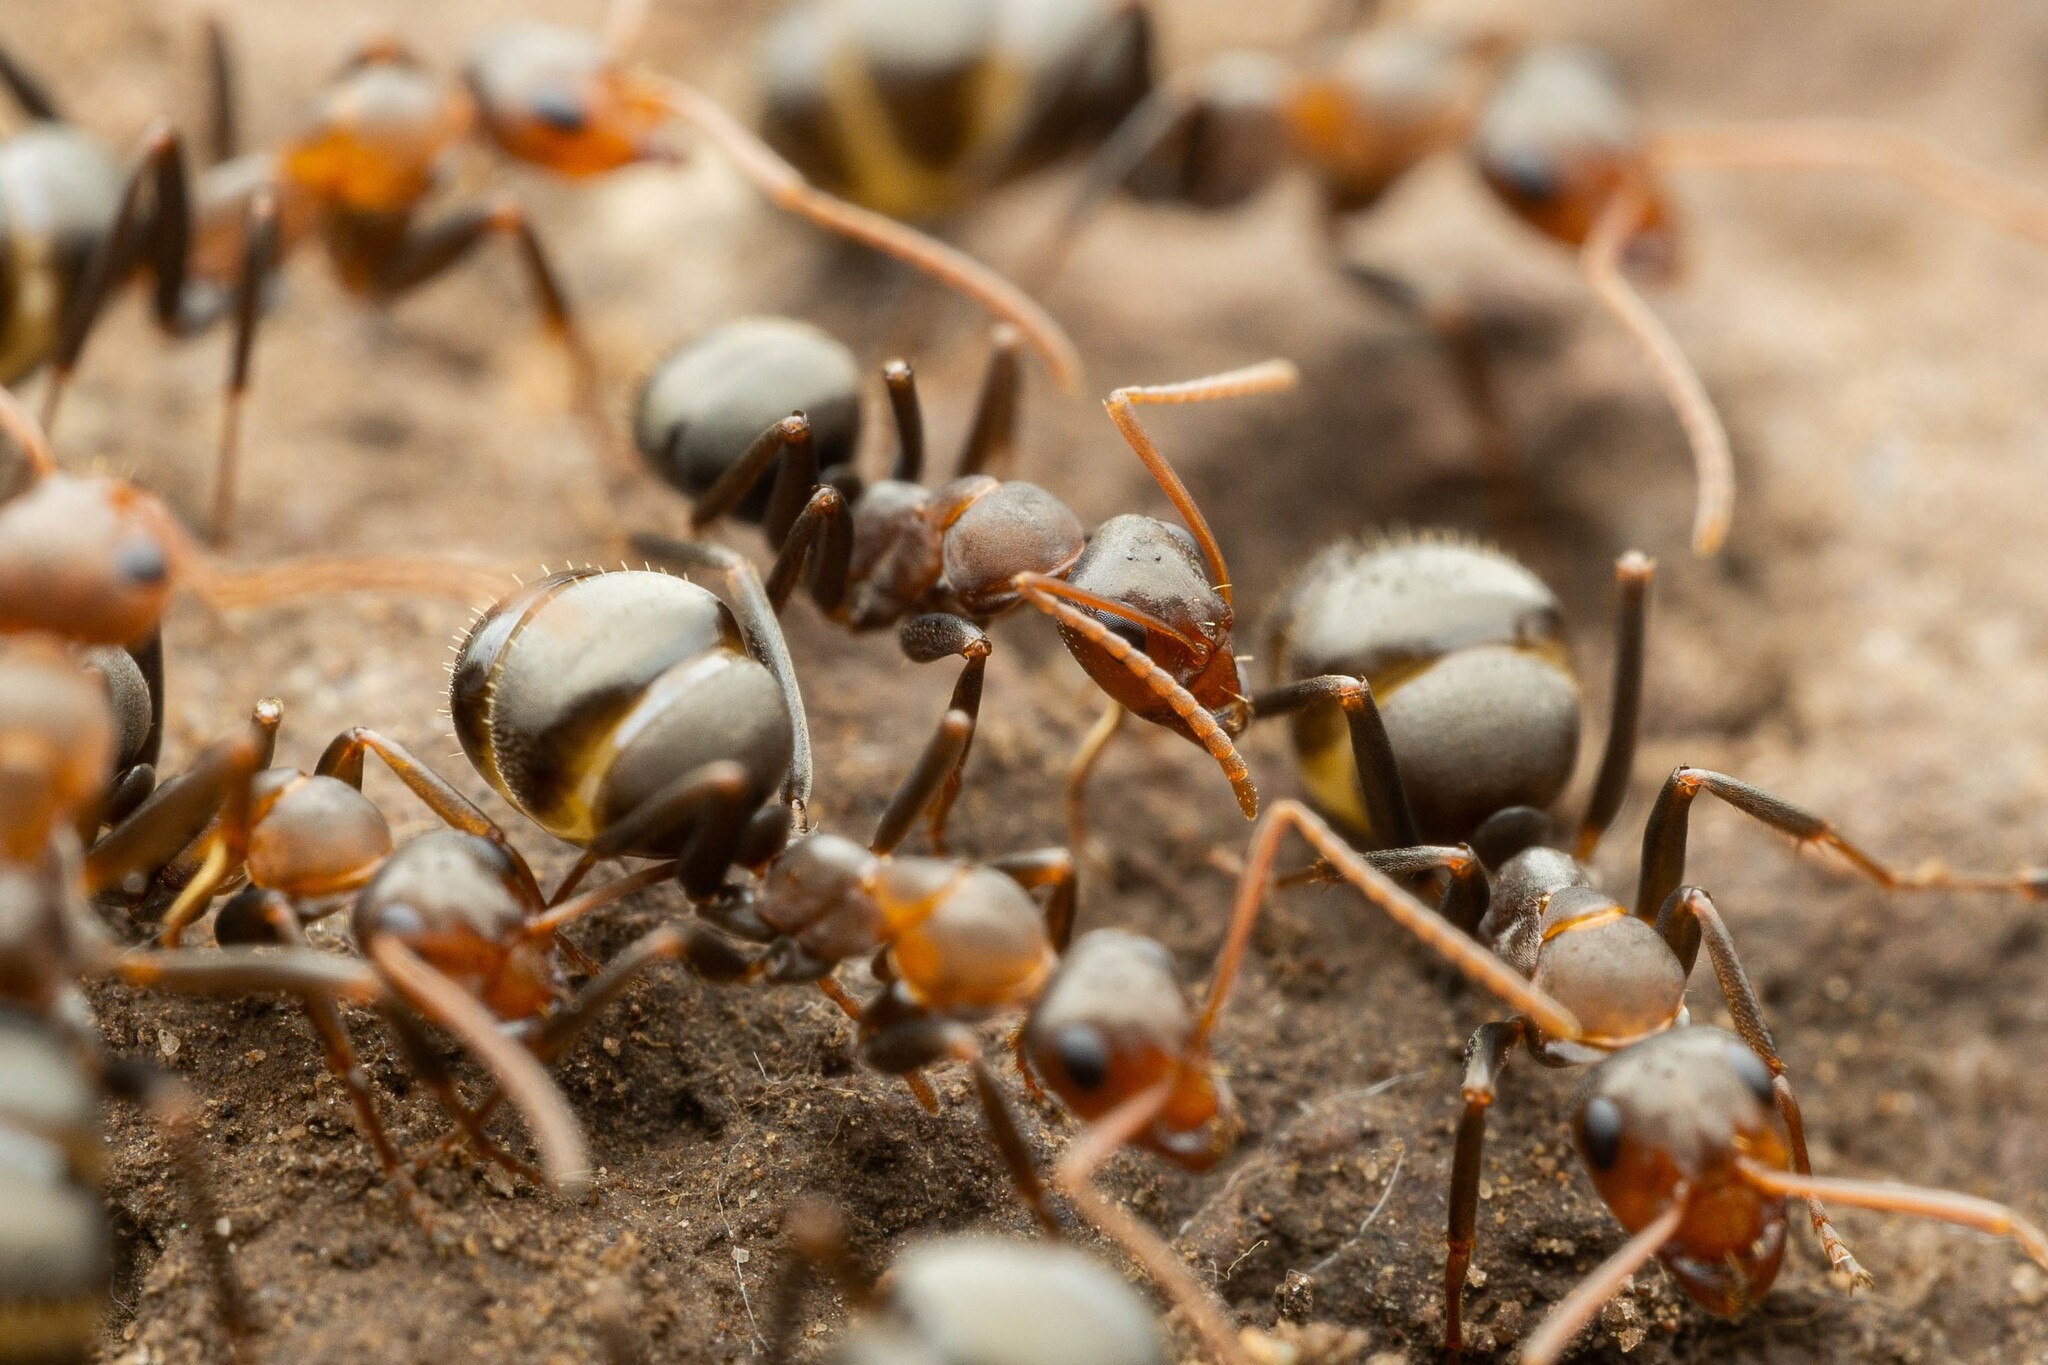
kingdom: Animalia
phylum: Arthropoda
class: Insecta
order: Hymenoptera
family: Formicidae
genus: Formica
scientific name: Formica foreliana
